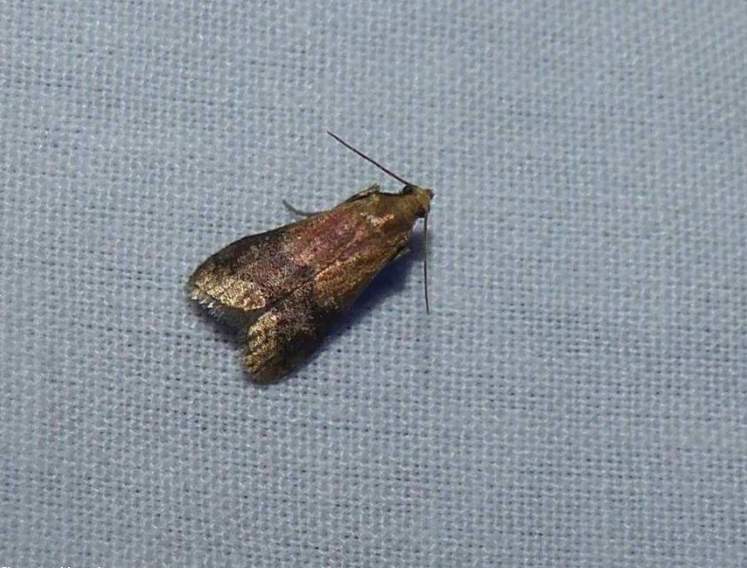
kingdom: Animalia
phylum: Arthropoda
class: Insecta
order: Lepidoptera
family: Pyralidae
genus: Eulogia
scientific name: Eulogia ochrifrontella
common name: Broad-banded eulogia moth
